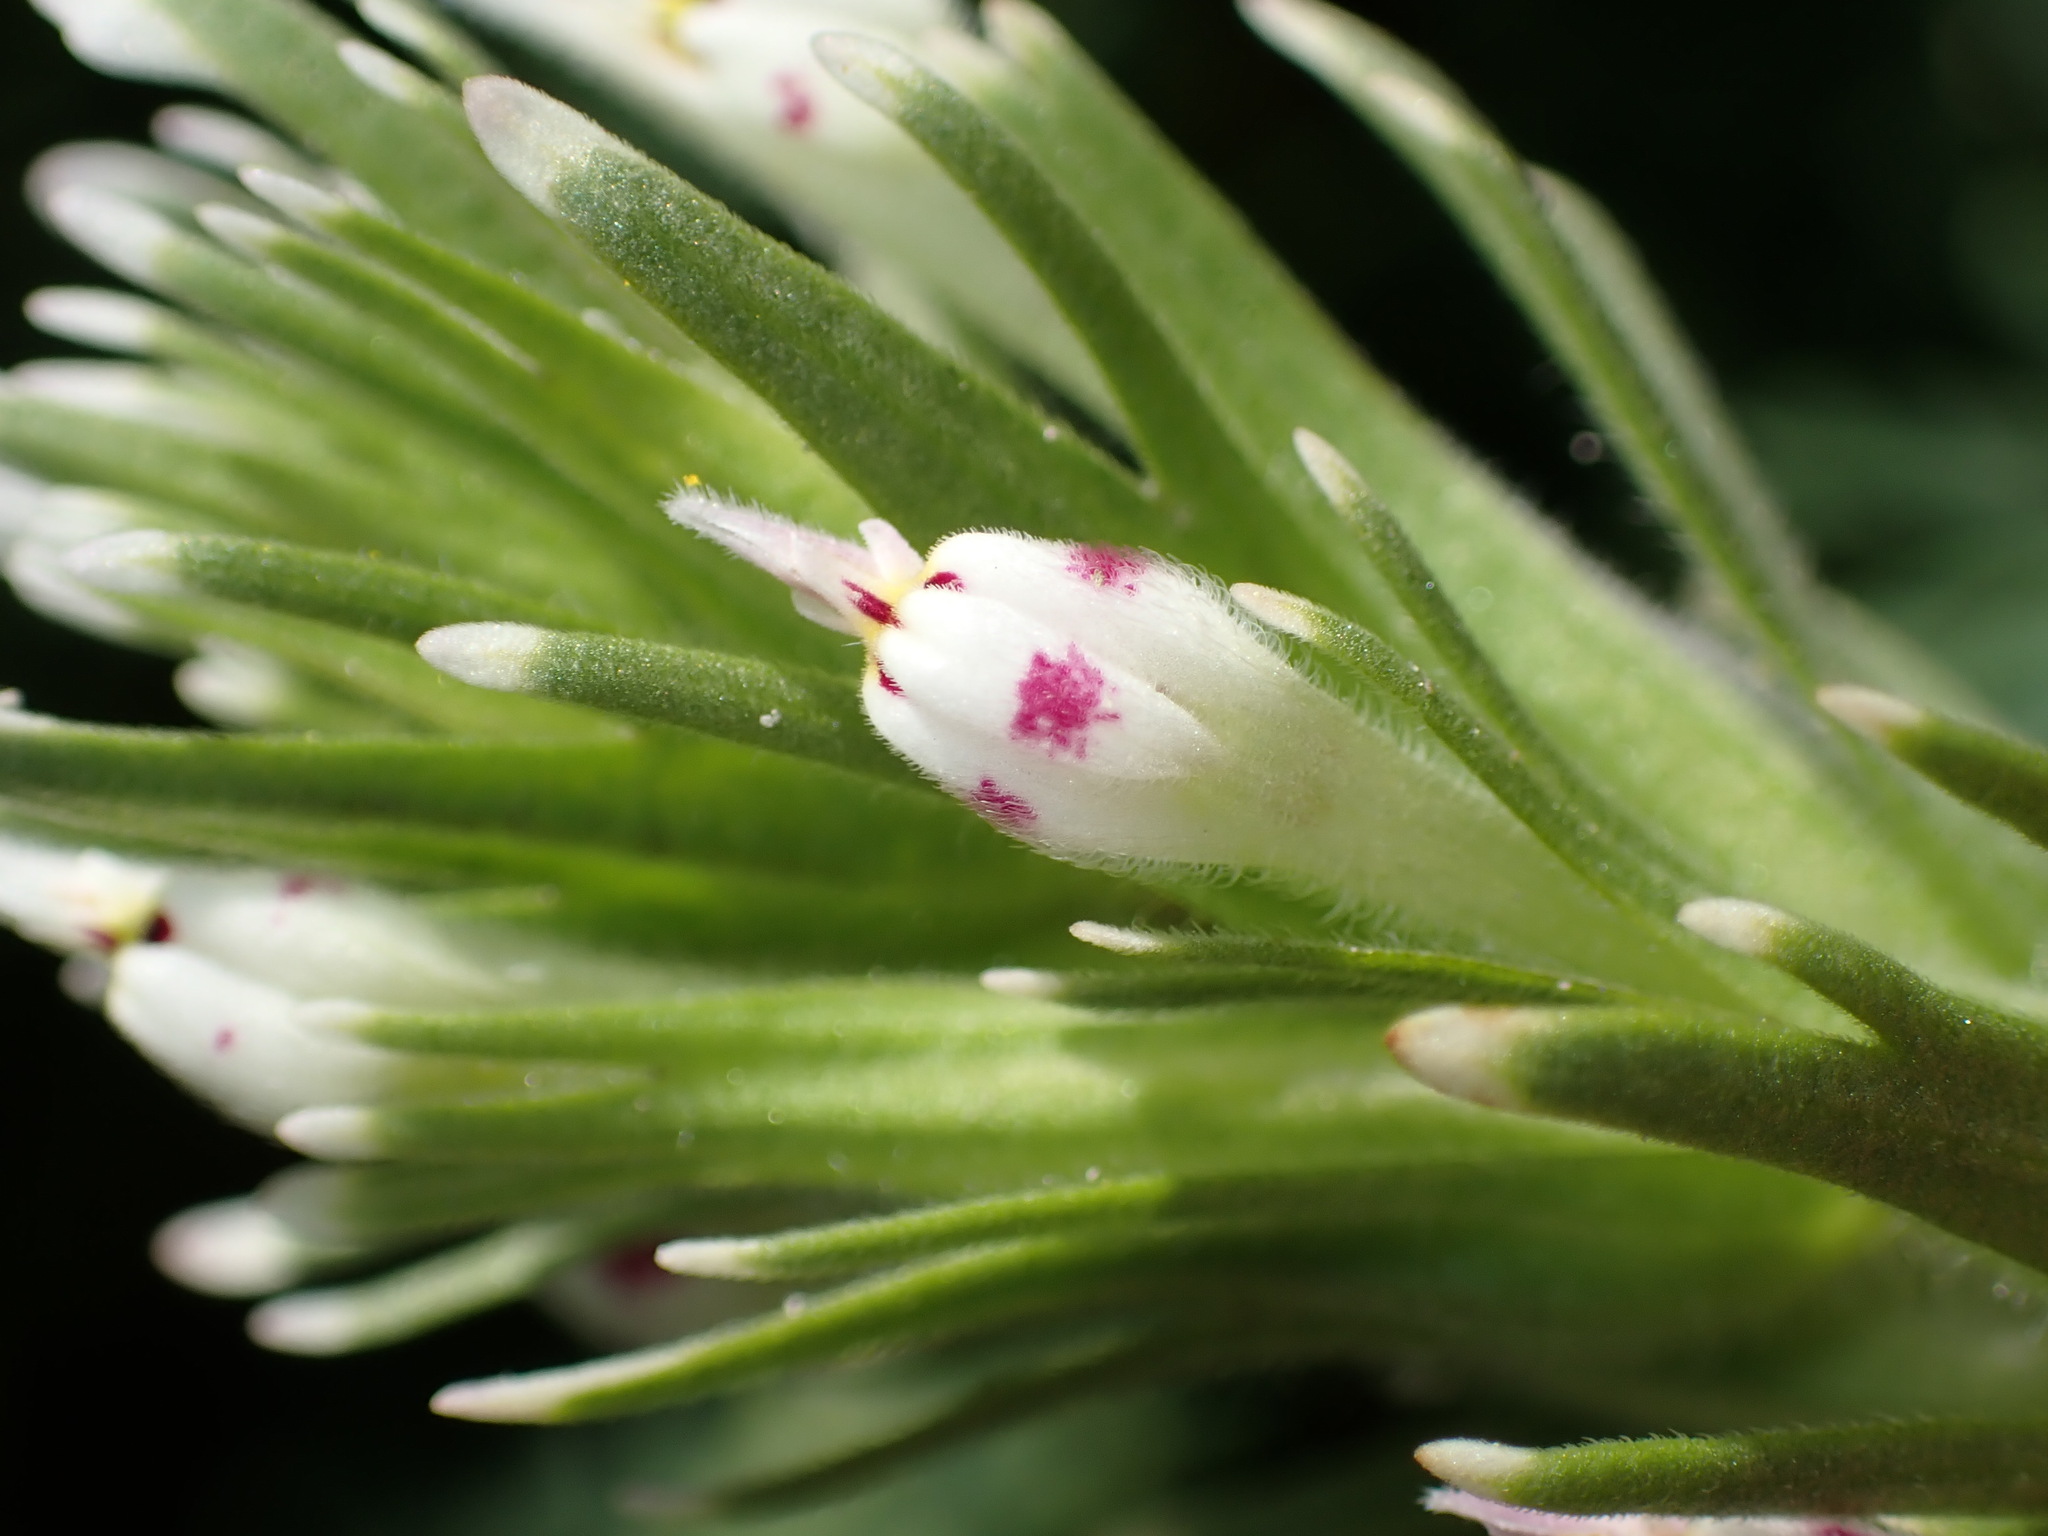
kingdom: Plantae
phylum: Tracheophyta
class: Magnoliopsida
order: Lamiales
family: Orobanchaceae
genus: Castilleja
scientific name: Castilleja attenuata
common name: Valley tassels
